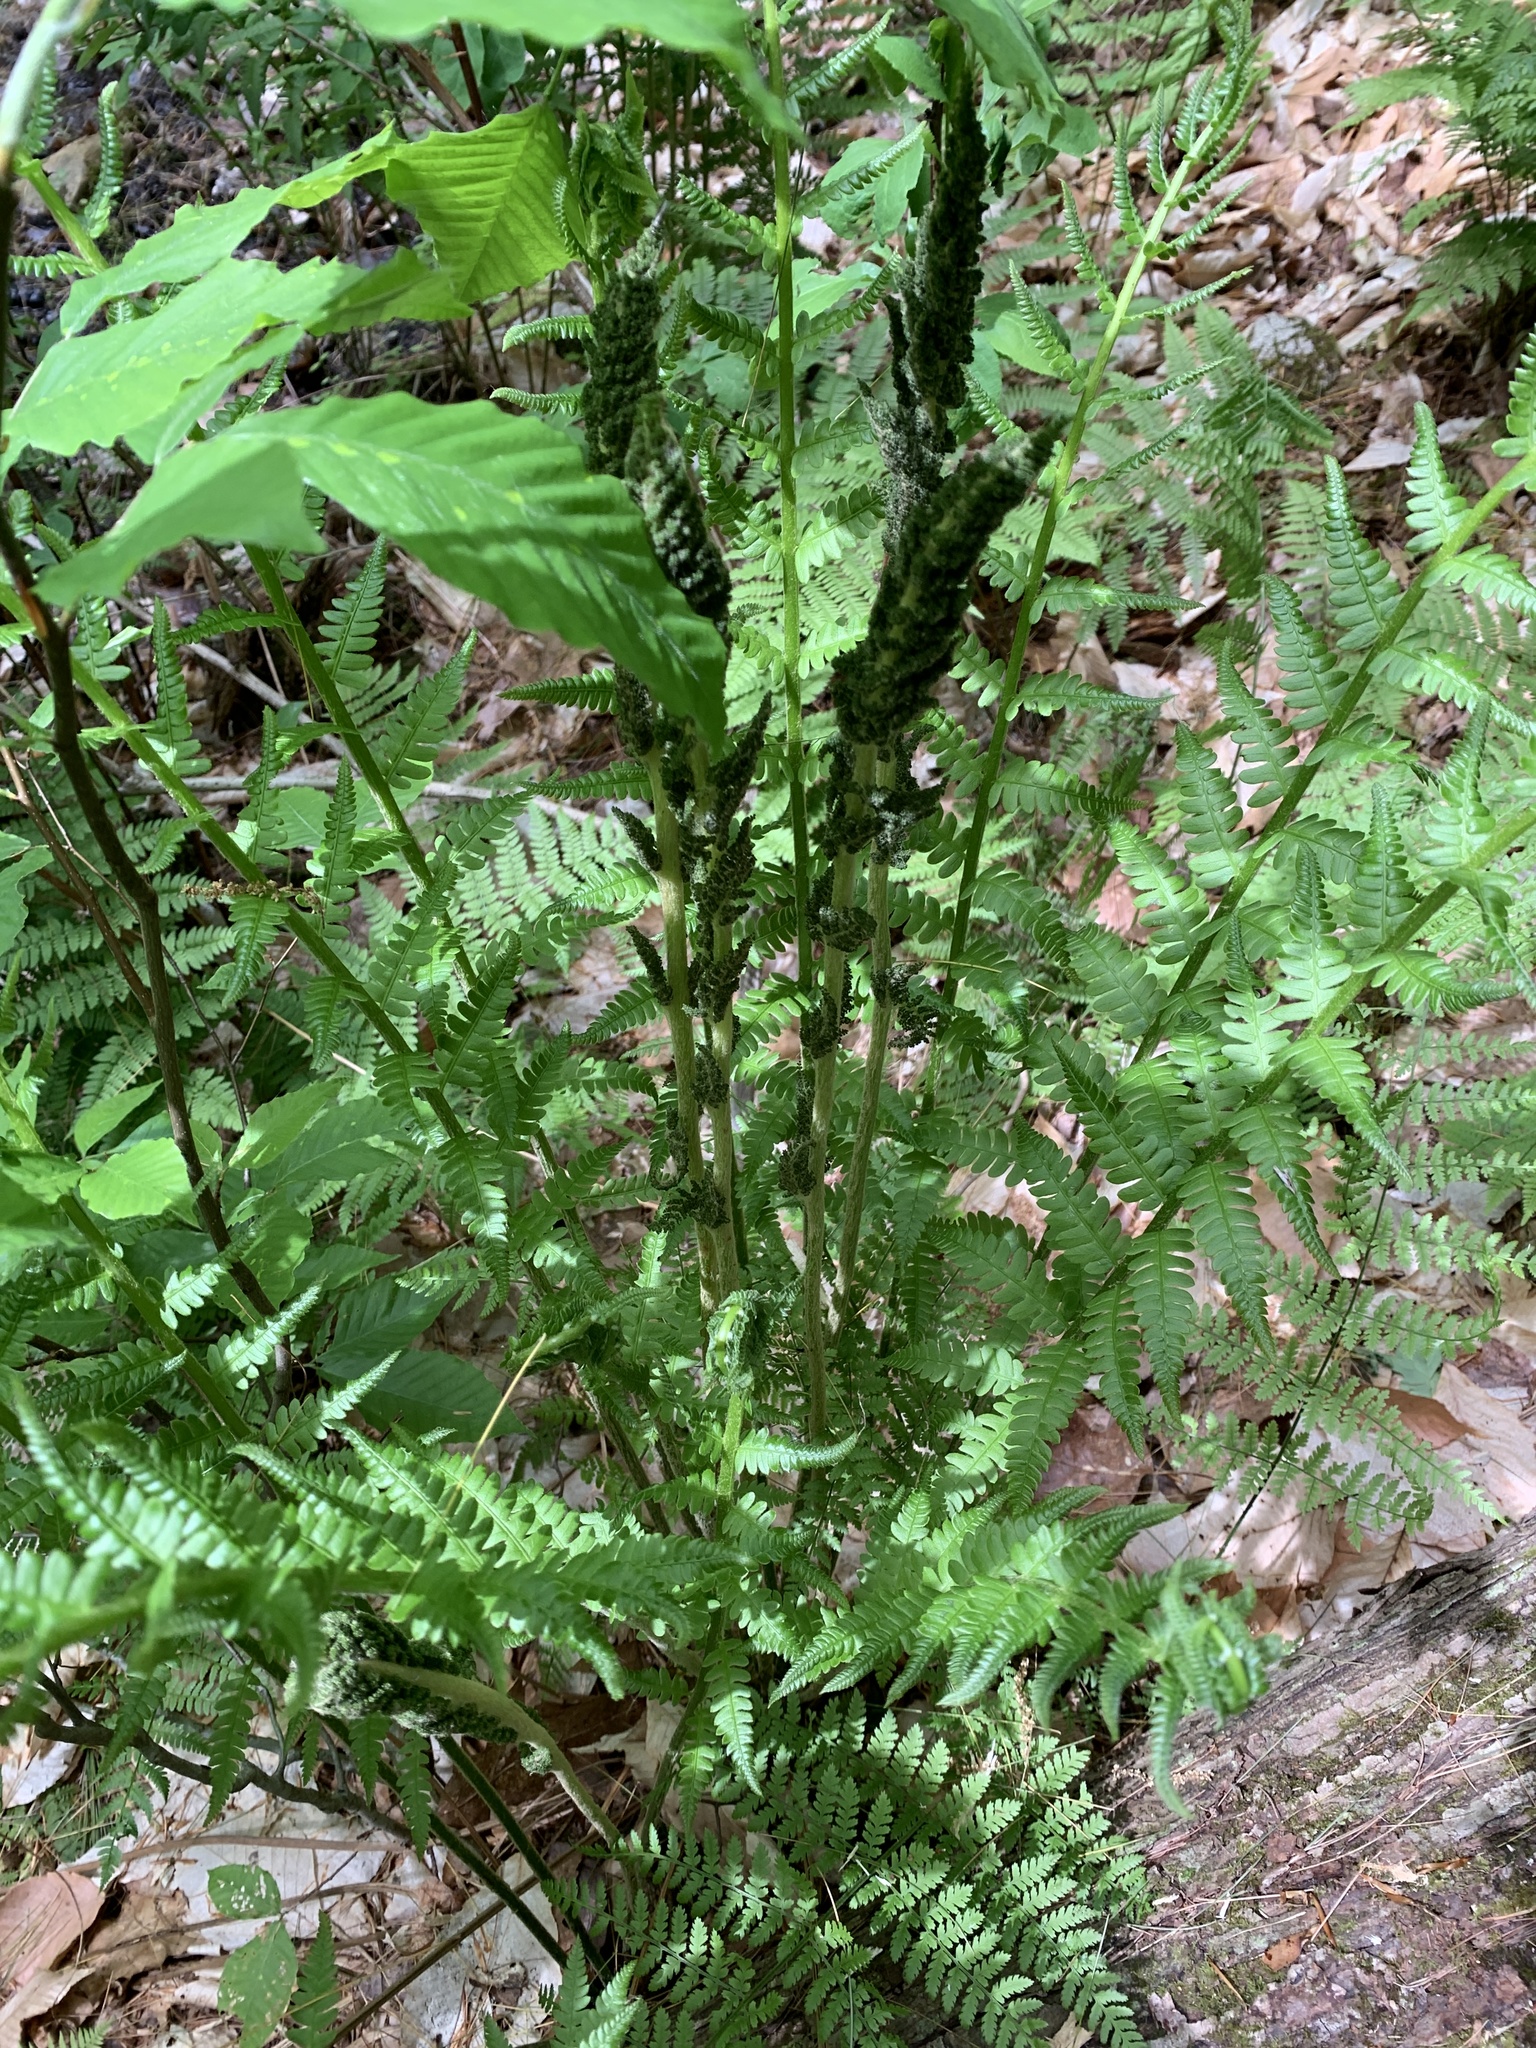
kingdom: Plantae
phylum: Tracheophyta
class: Polypodiopsida
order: Osmundales
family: Osmundaceae
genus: Osmundastrum
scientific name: Osmundastrum cinnamomeum
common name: Cinnamon fern
